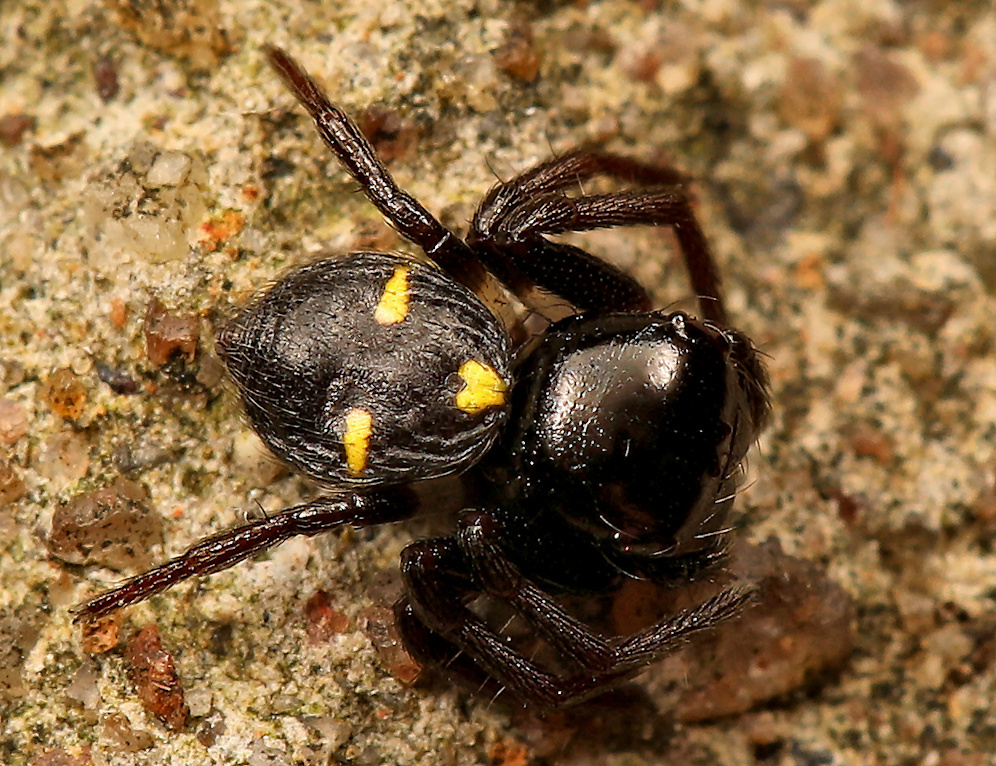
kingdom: Animalia
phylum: Arthropoda
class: Arachnida
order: Araneae
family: Thomisidae
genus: Pactactes
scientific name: Pactactes trimaculatus
